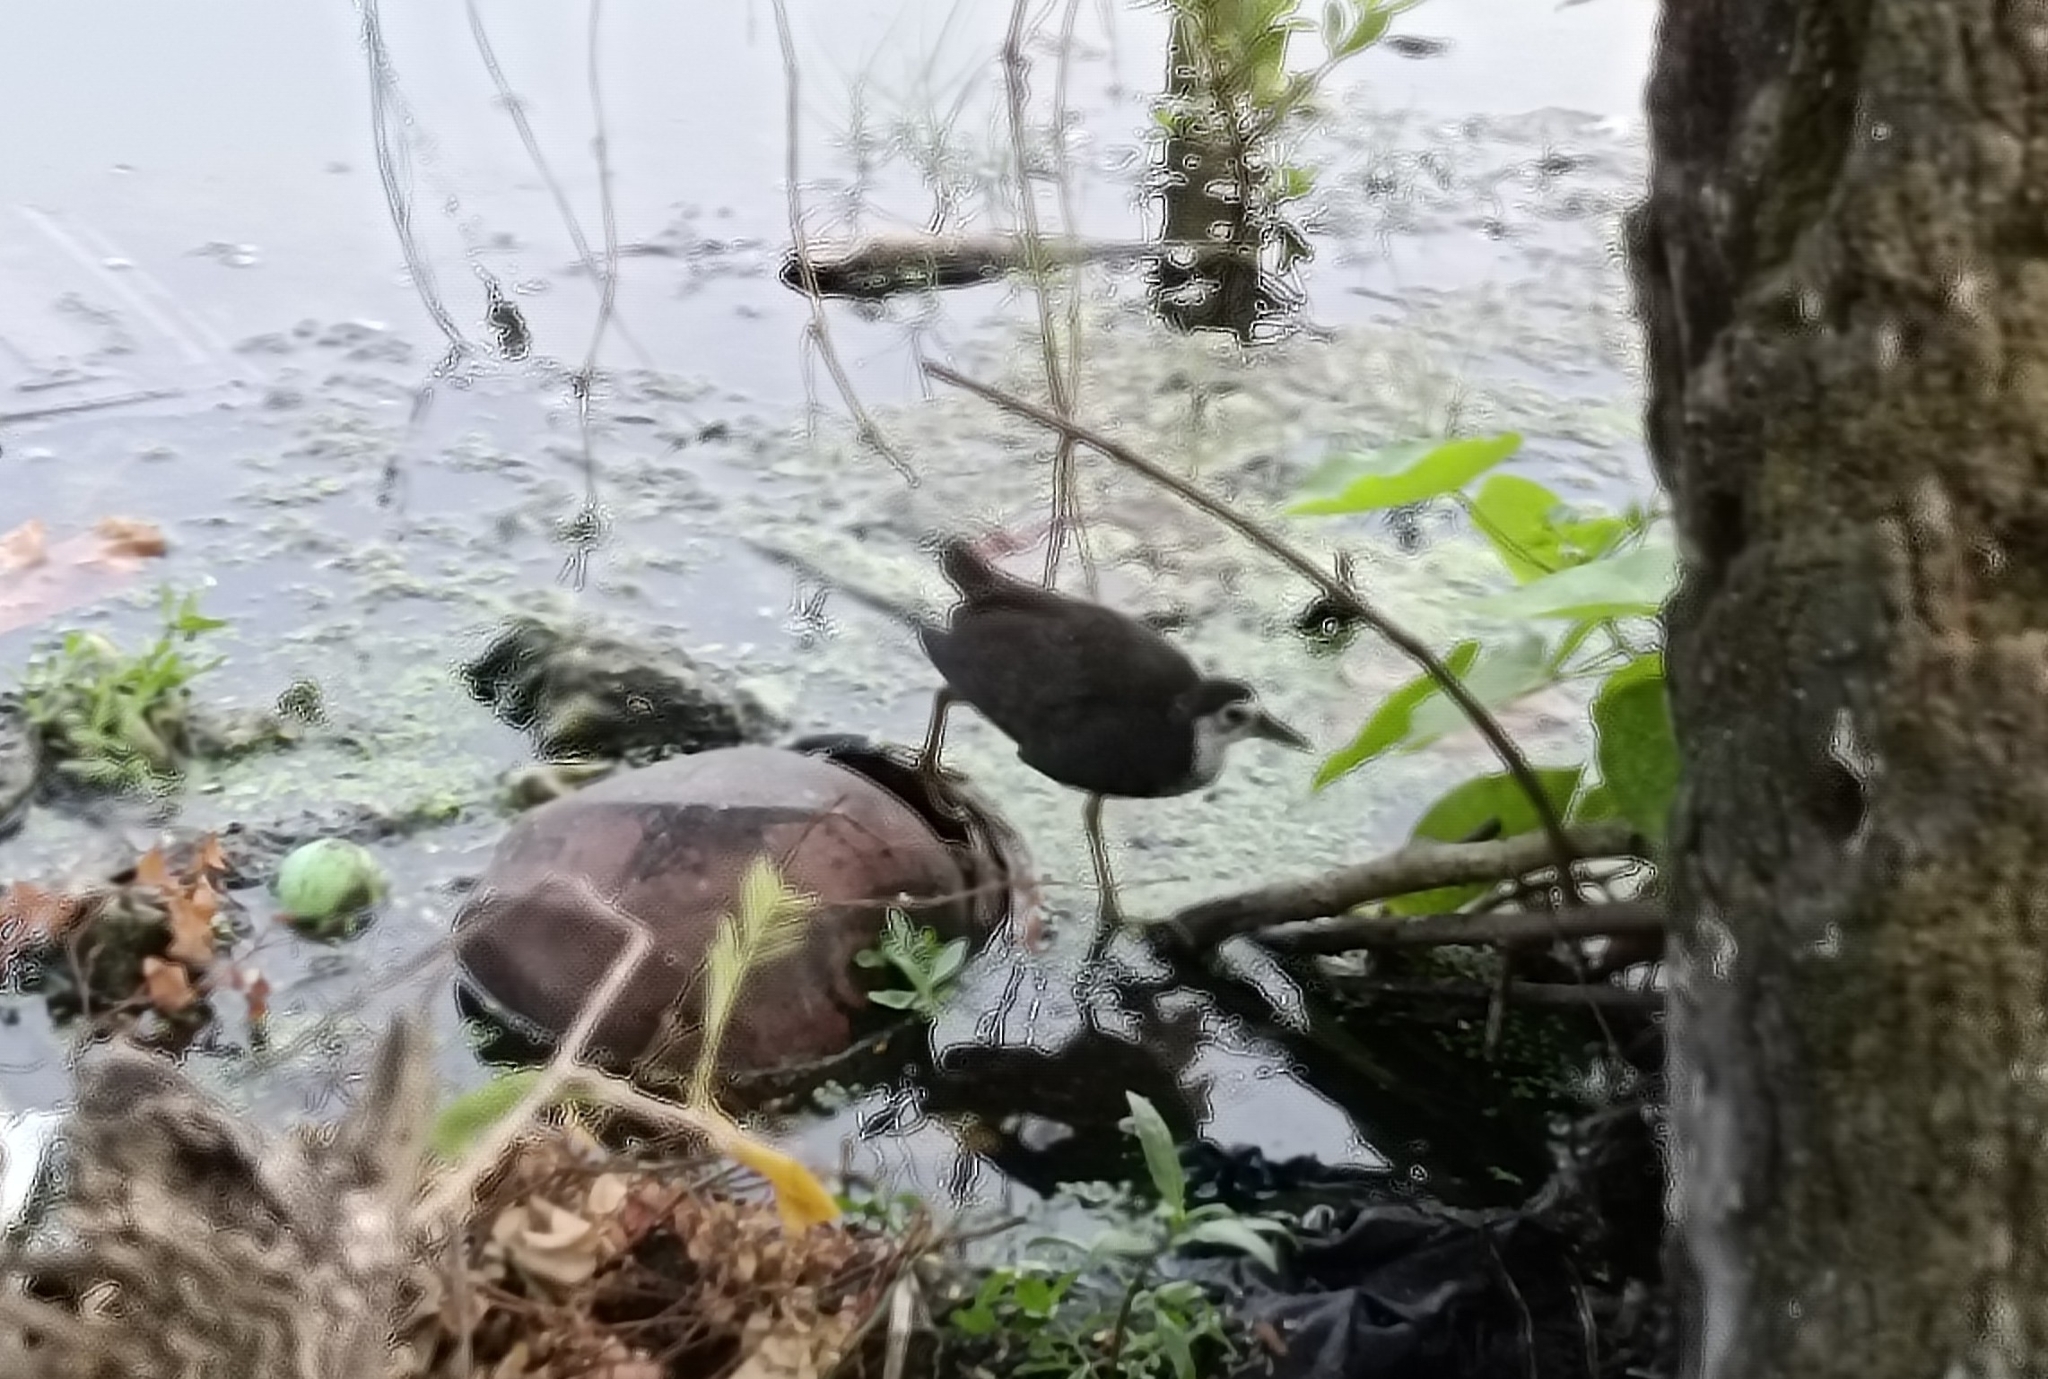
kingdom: Animalia
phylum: Chordata
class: Aves
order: Gruiformes
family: Rallidae
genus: Amaurornis
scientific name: Amaurornis phoenicurus
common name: White-breasted waterhen
